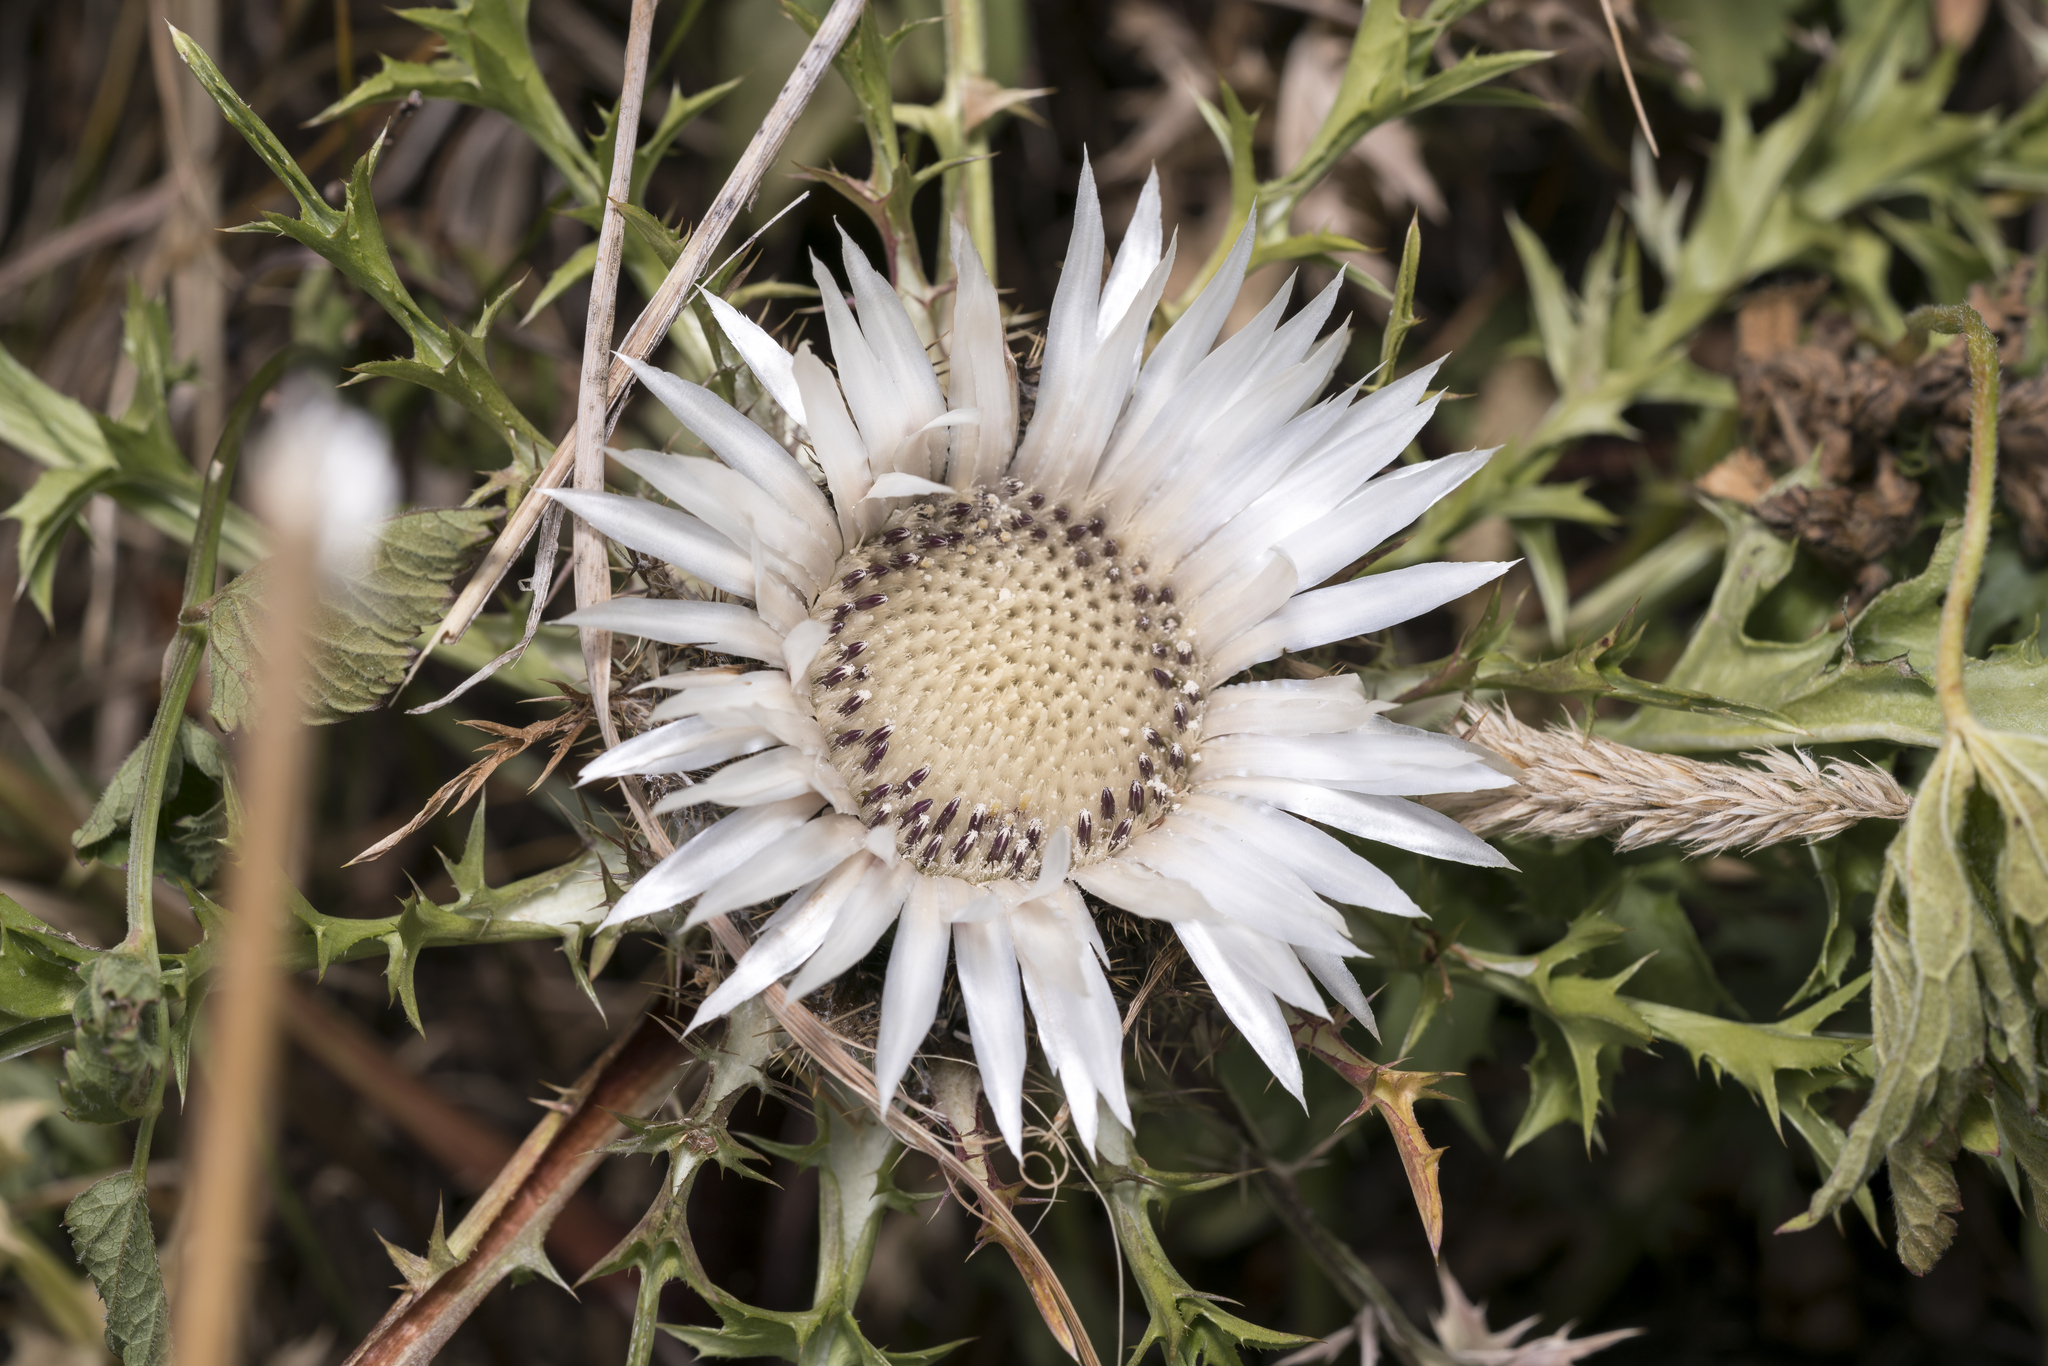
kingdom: Plantae
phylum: Tracheophyta
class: Magnoliopsida
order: Asterales
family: Asteraceae
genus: Carlina
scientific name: Carlina acaulis
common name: Stemless carline thistle
